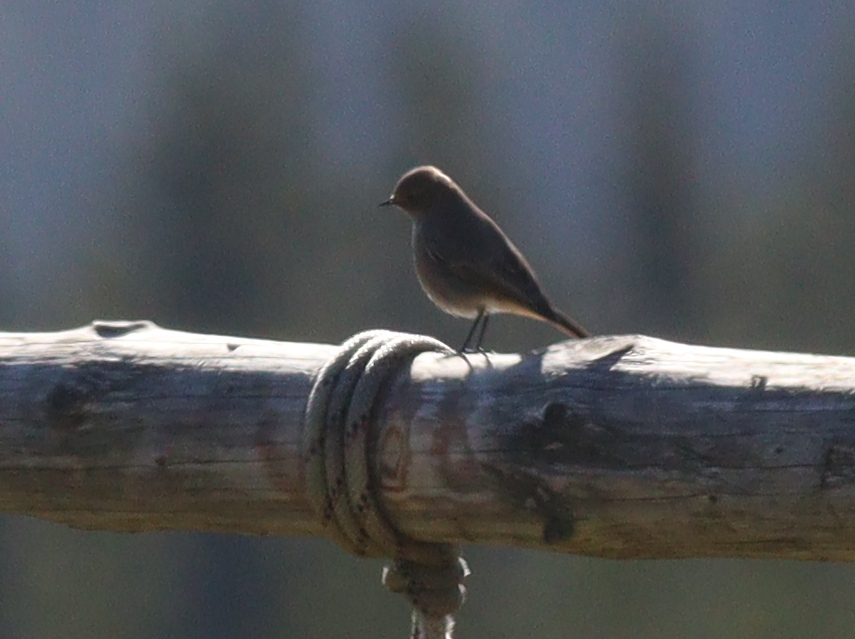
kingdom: Animalia
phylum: Chordata
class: Aves
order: Passeriformes
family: Muscicapidae
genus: Phoenicurus
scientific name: Phoenicurus ochruros
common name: Black redstart
